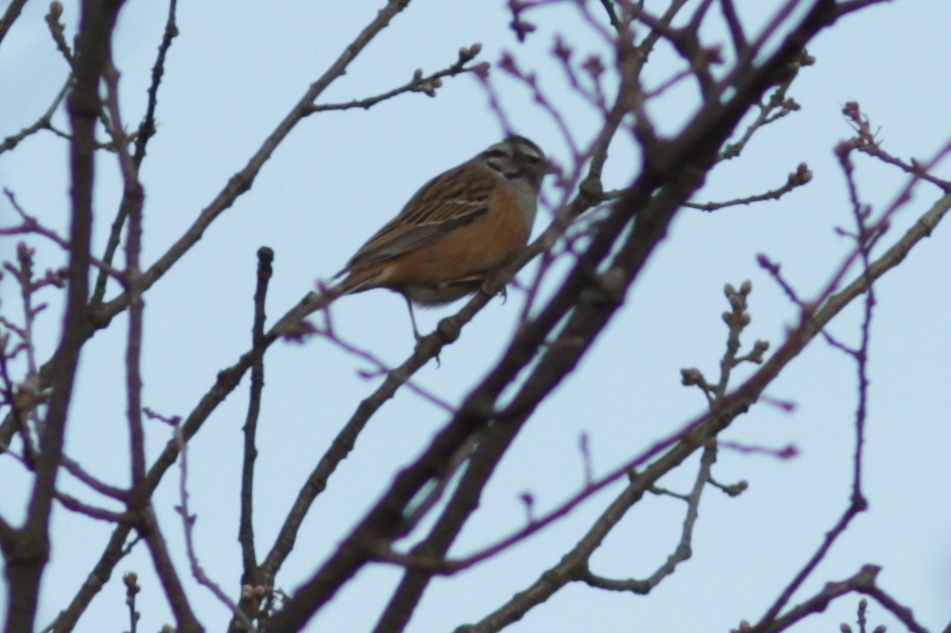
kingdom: Animalia
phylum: Chordata
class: Aves
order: Passeriformes
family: Emberizidae
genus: Emberiza
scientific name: Emberiza cia
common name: Rock bunting
